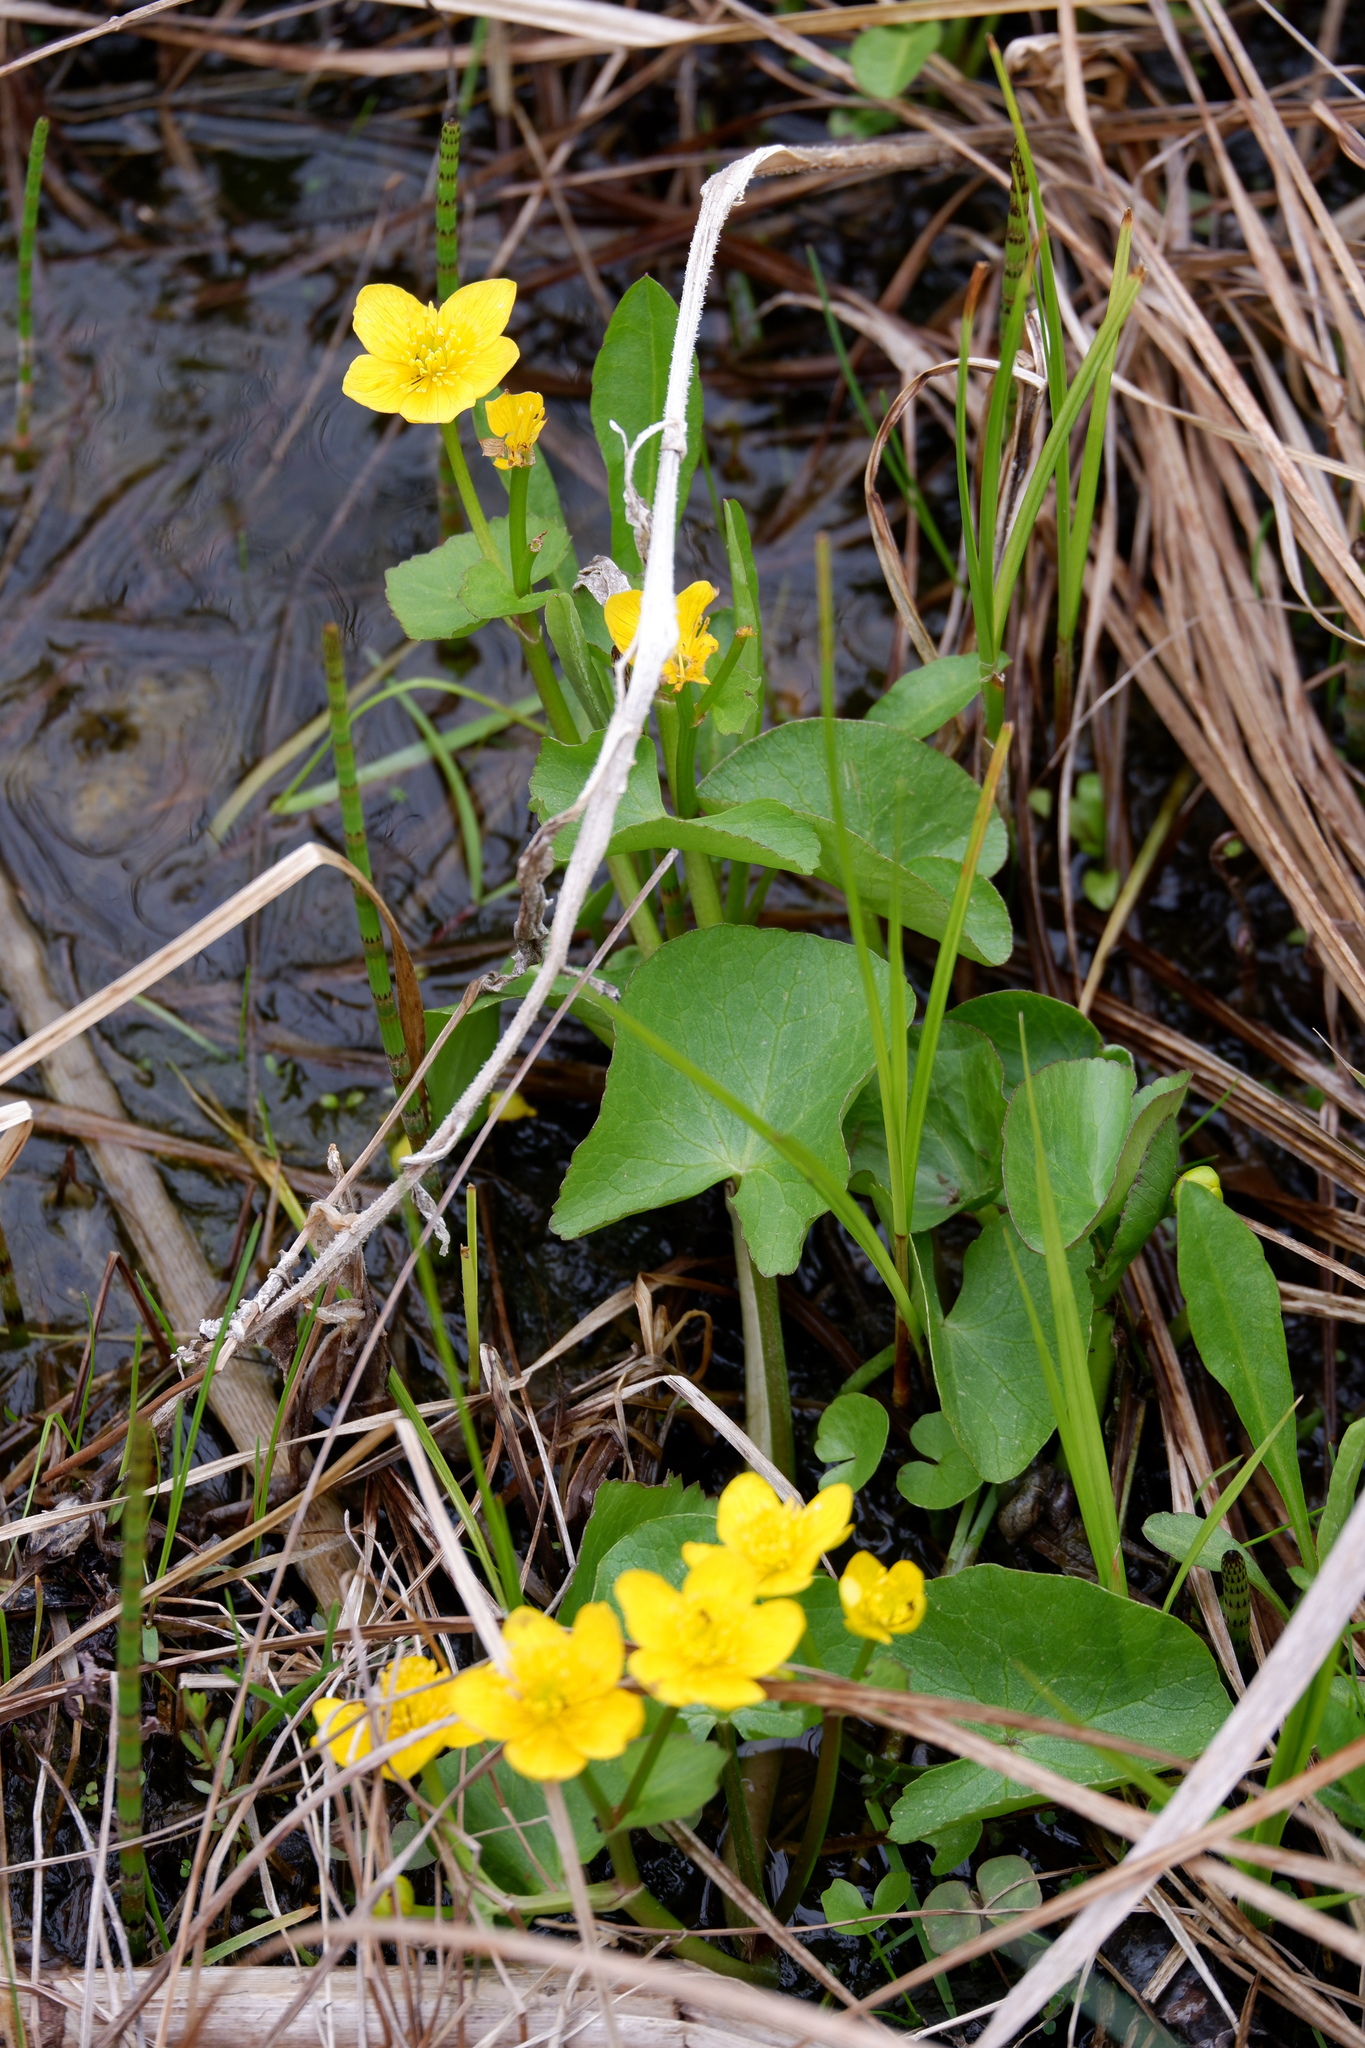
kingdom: Plantae
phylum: Tracheophyta
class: Magnoliopsida
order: Ranunculales
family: Ranunculaceae
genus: Caltha
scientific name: Caltha palustris
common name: Marsh marigold
